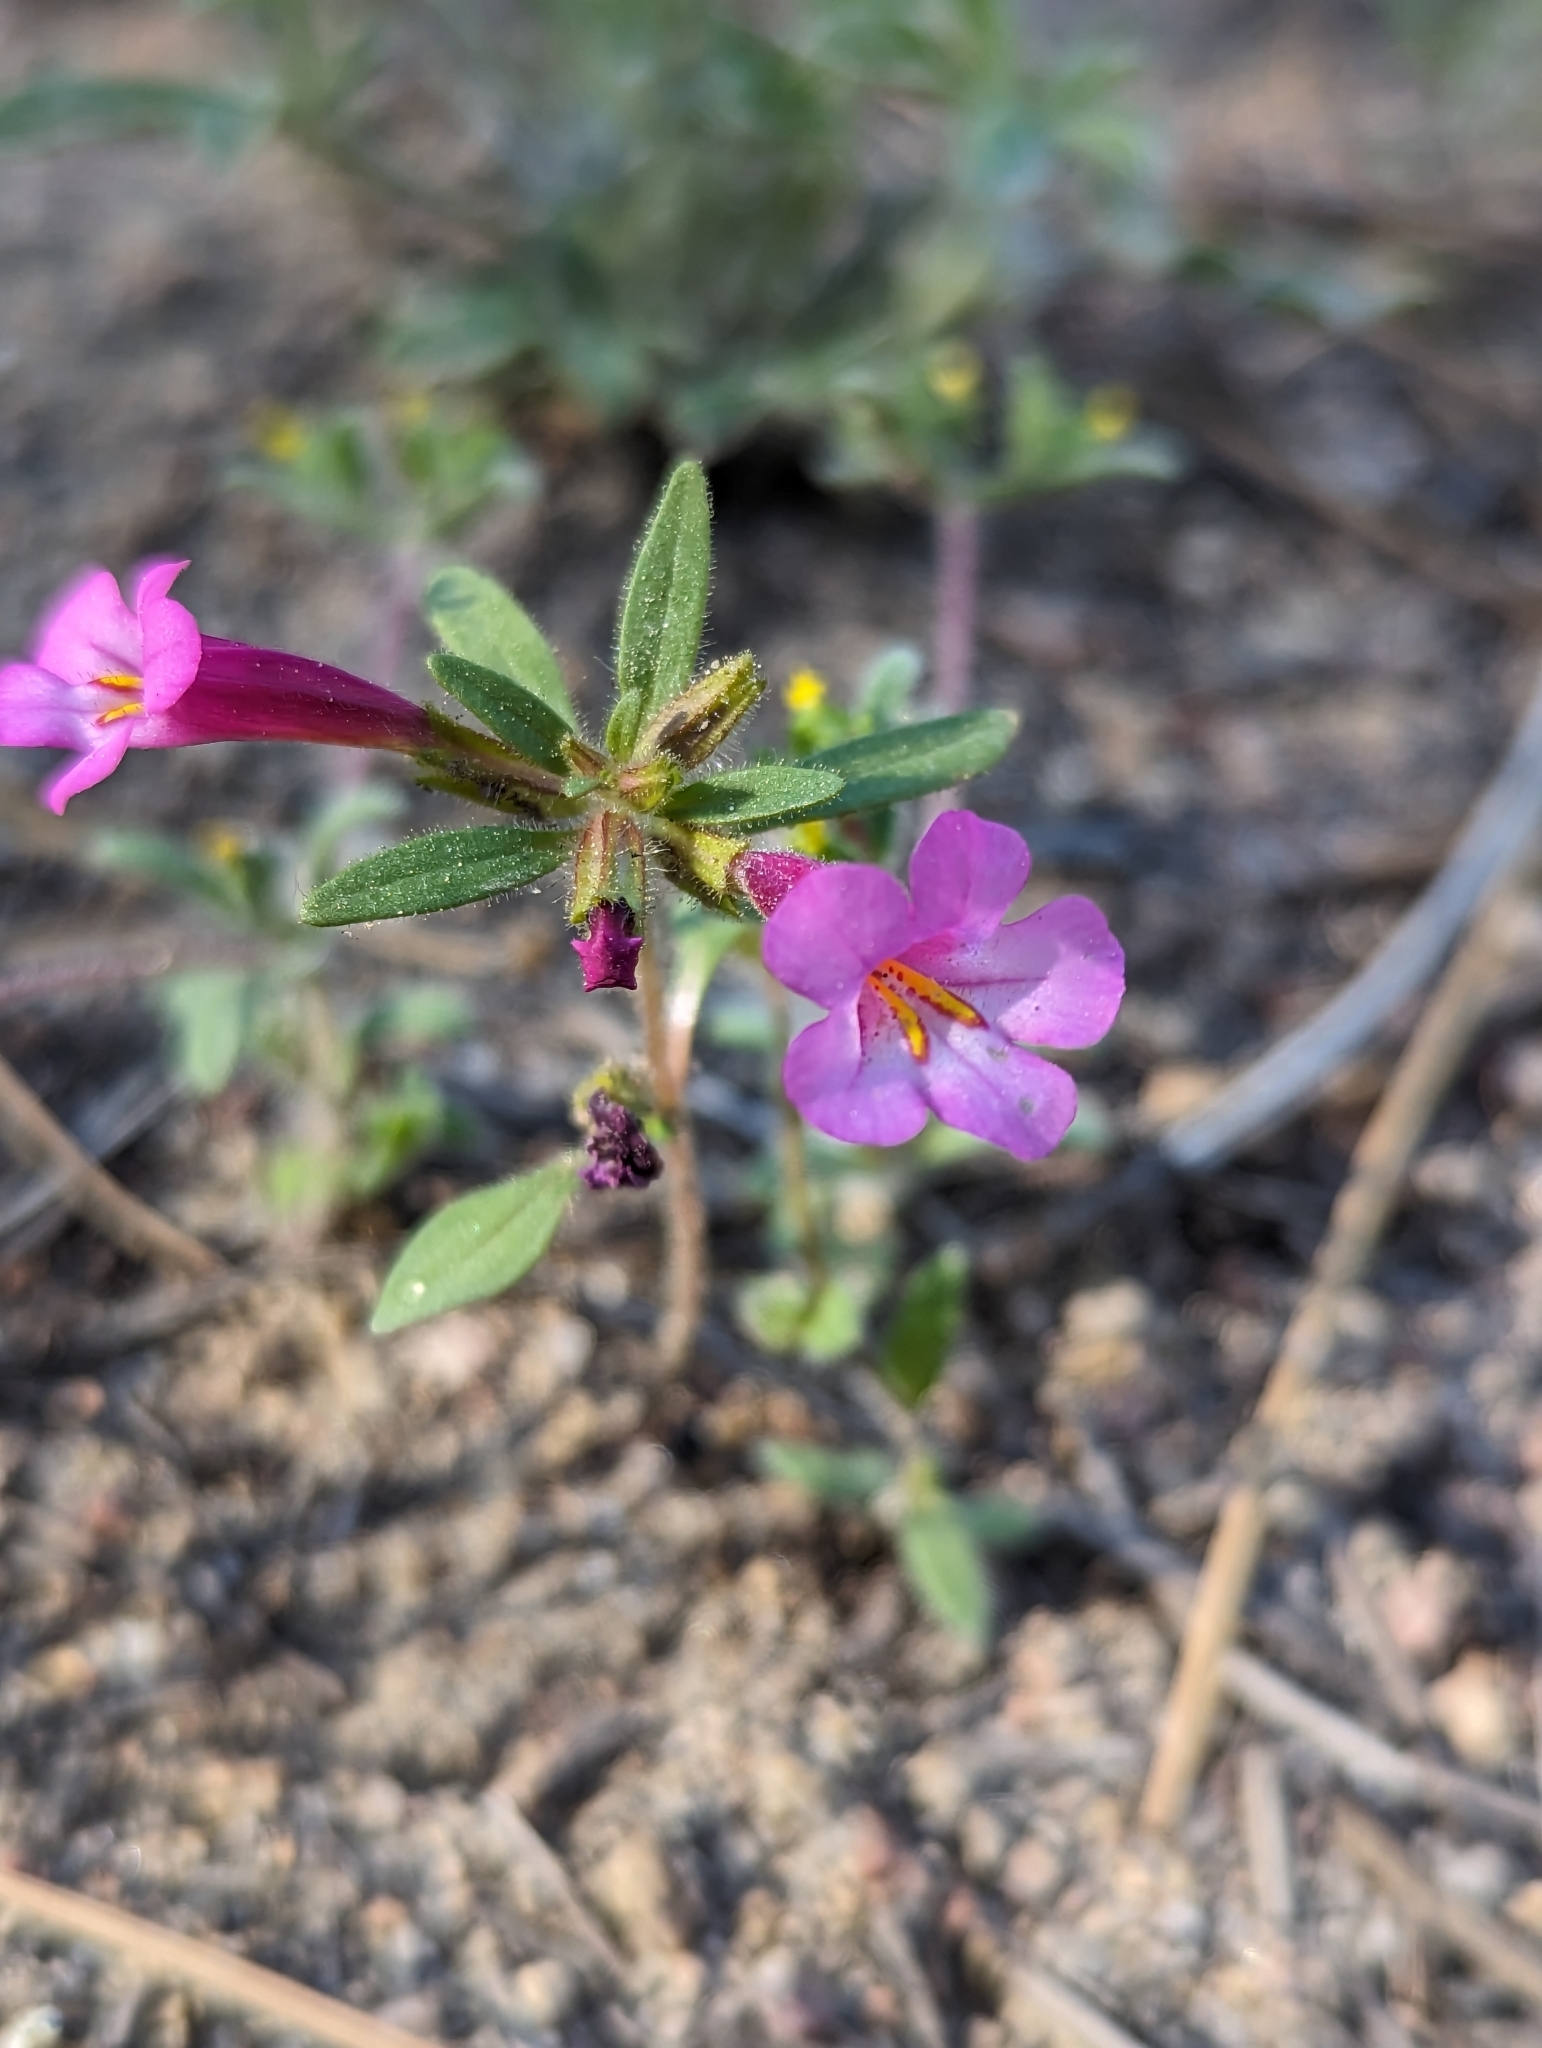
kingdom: Plantae
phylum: Tracheophyta
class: Magnoliopsida
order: Lamiales
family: Phrymaceae
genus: Diplacus
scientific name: Diplacus torreyi
